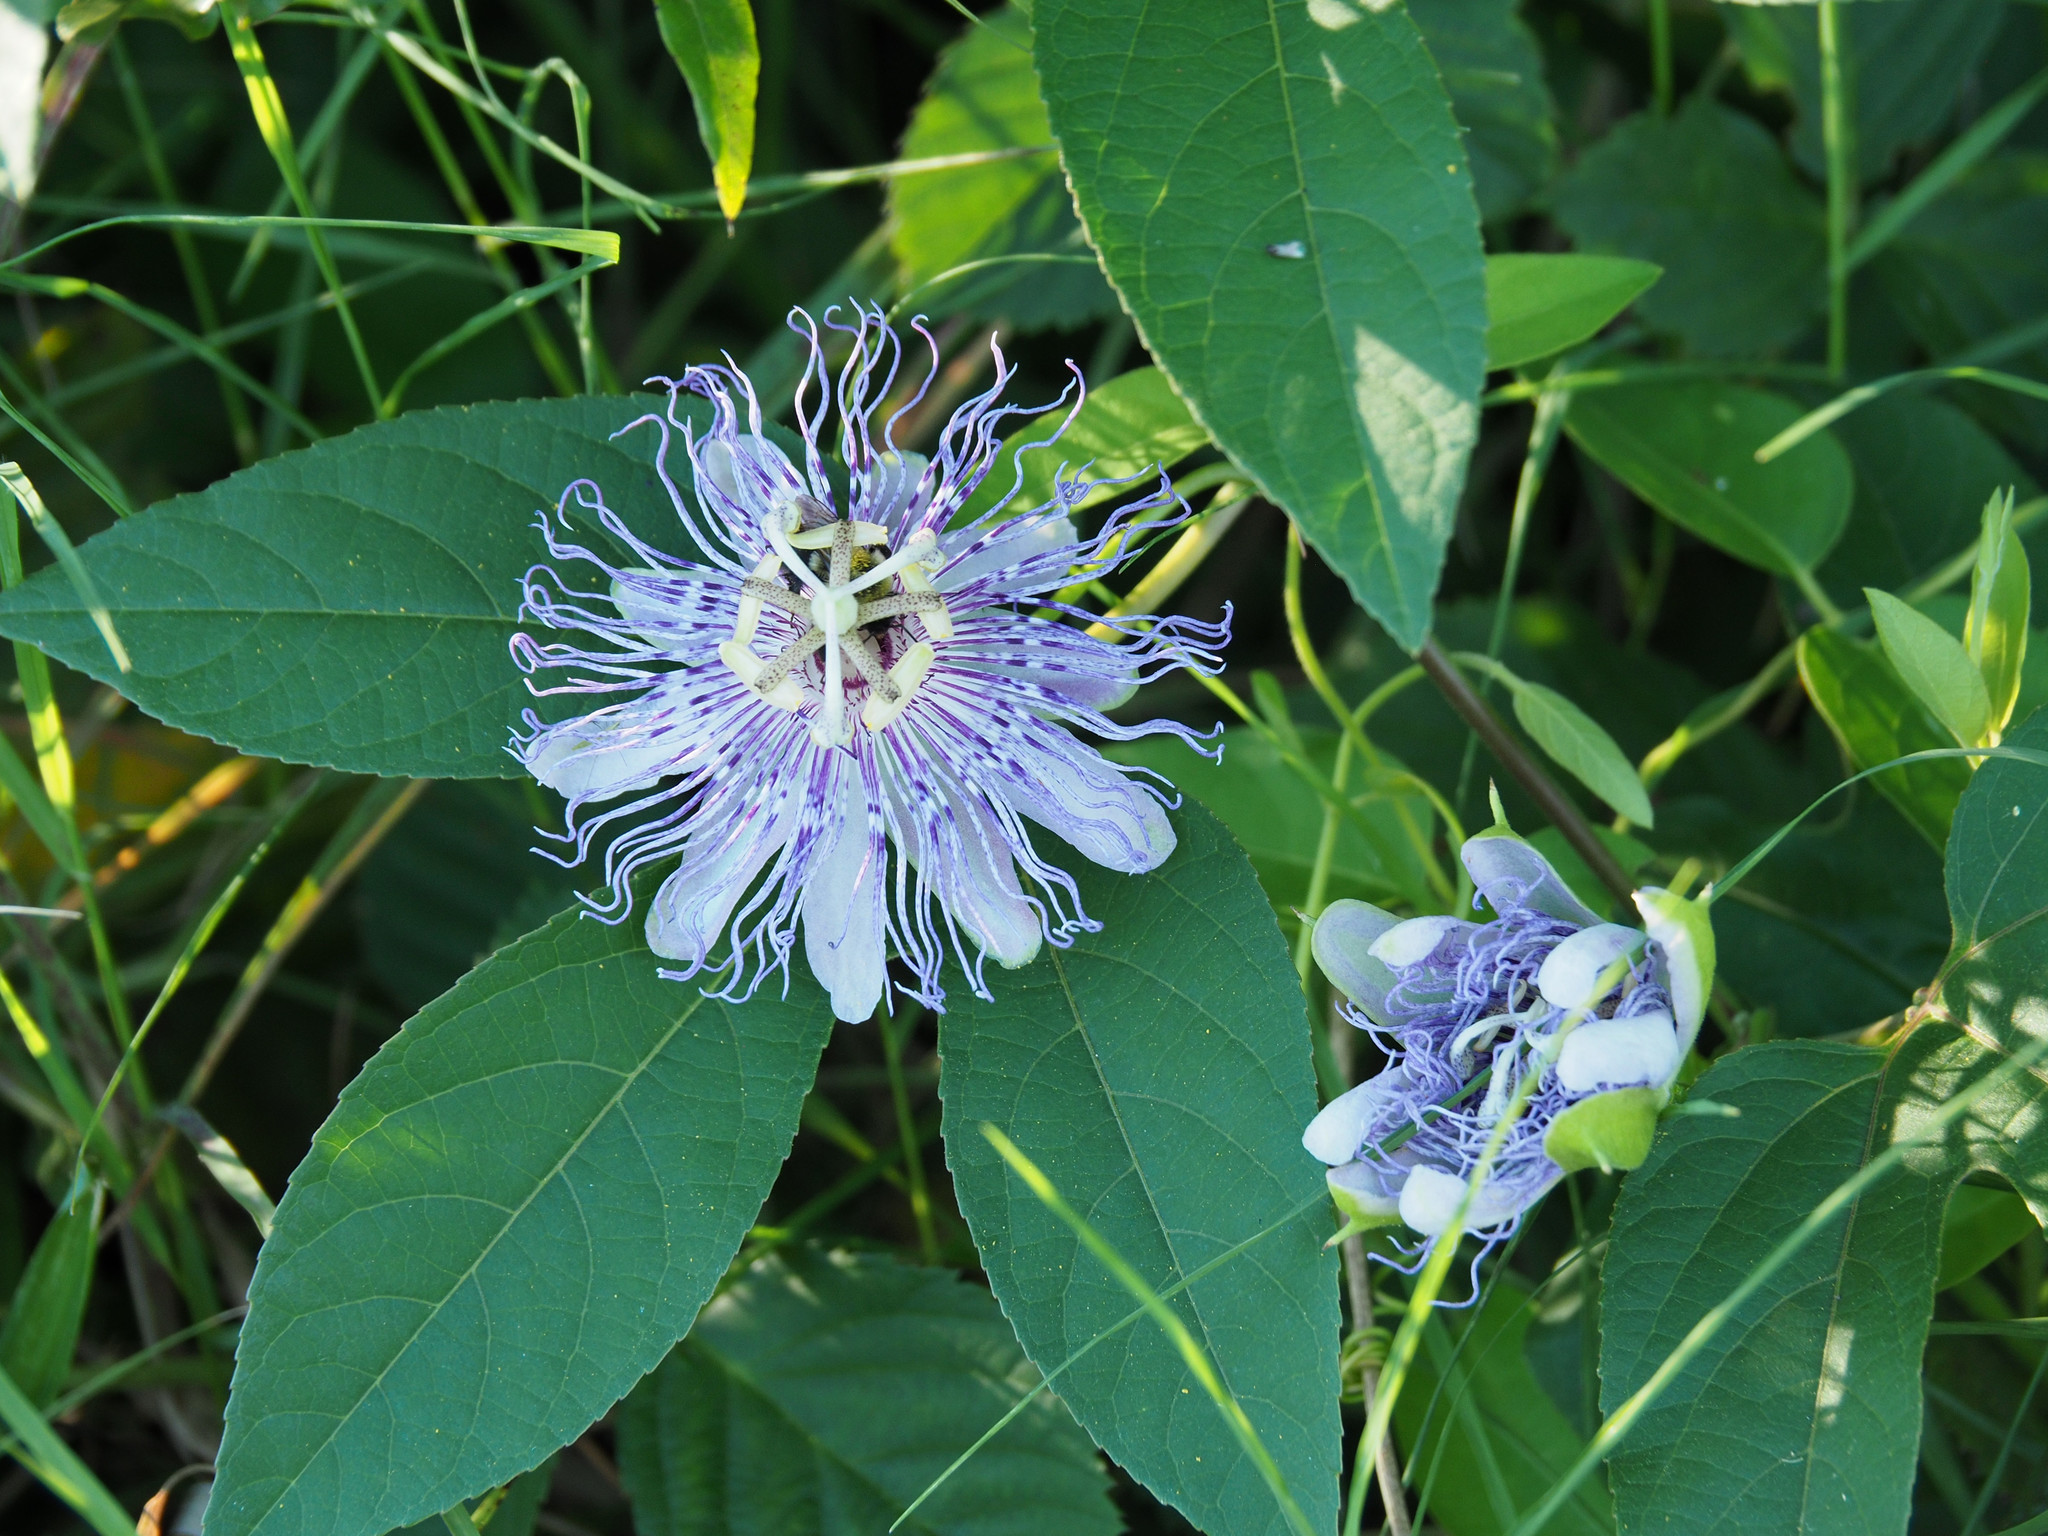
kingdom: Plantae
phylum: Tracheophyta
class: Magnoliopsida
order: Malpighiales
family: Passifloraceae
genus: Passiflora
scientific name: Passiflora incarnata
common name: Apricot-vine
